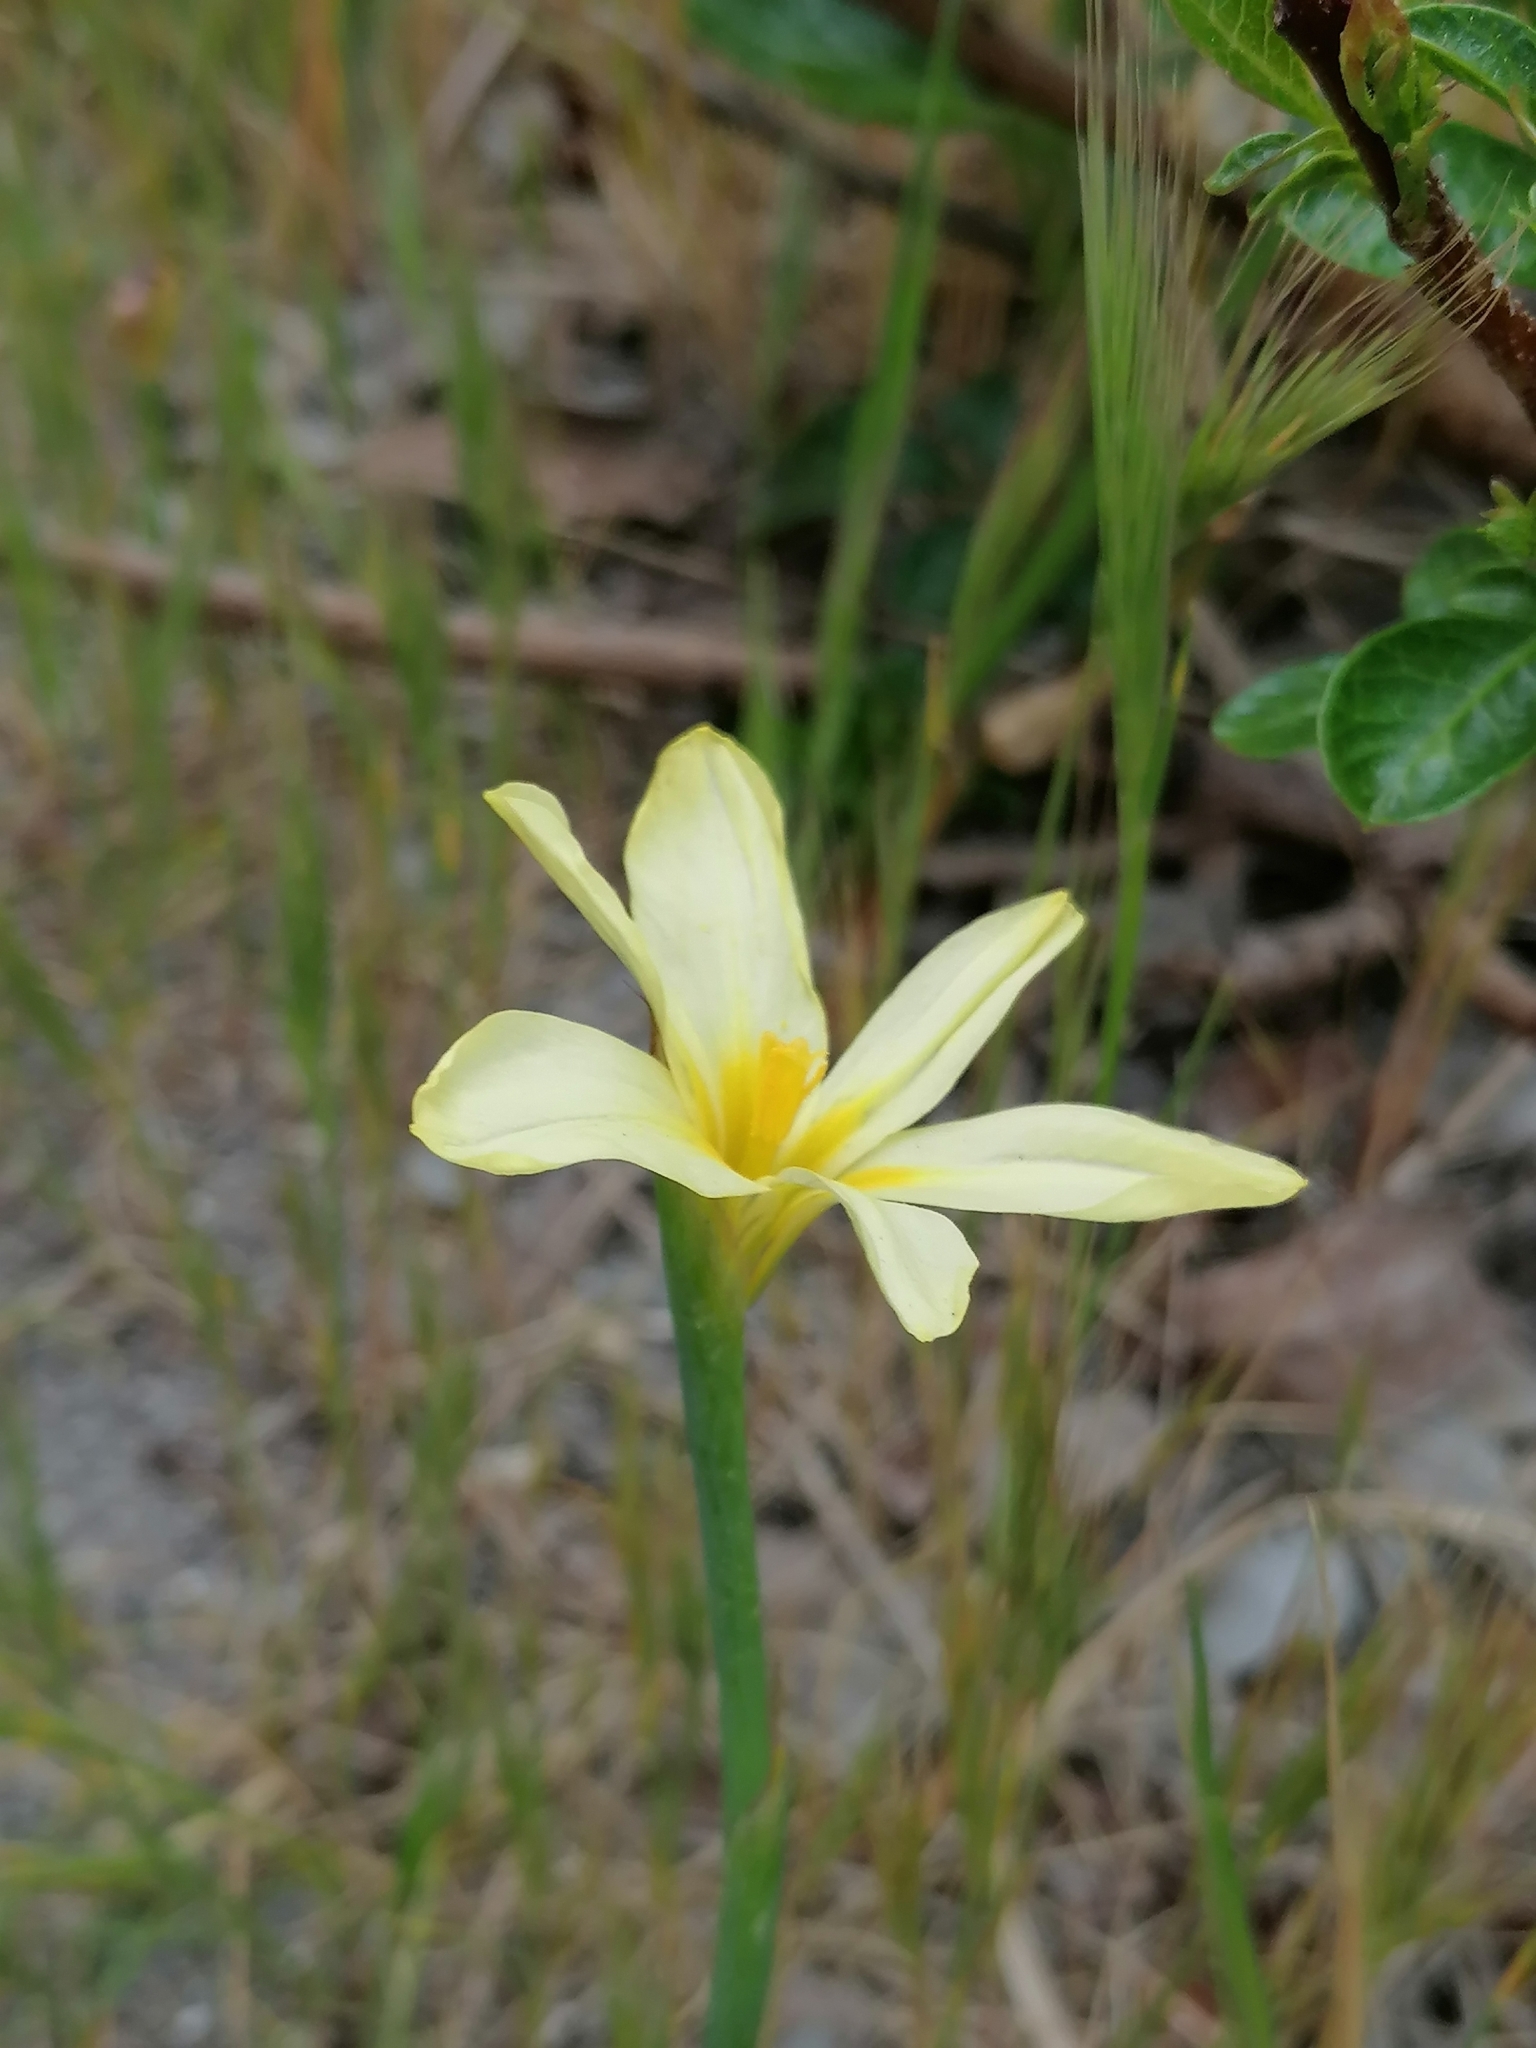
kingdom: Plantae
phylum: Tracheophyta
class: Liliopsida
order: Asparagales
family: Iridaceae
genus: Moraea
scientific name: Moraea collina
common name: Cape-tulip
